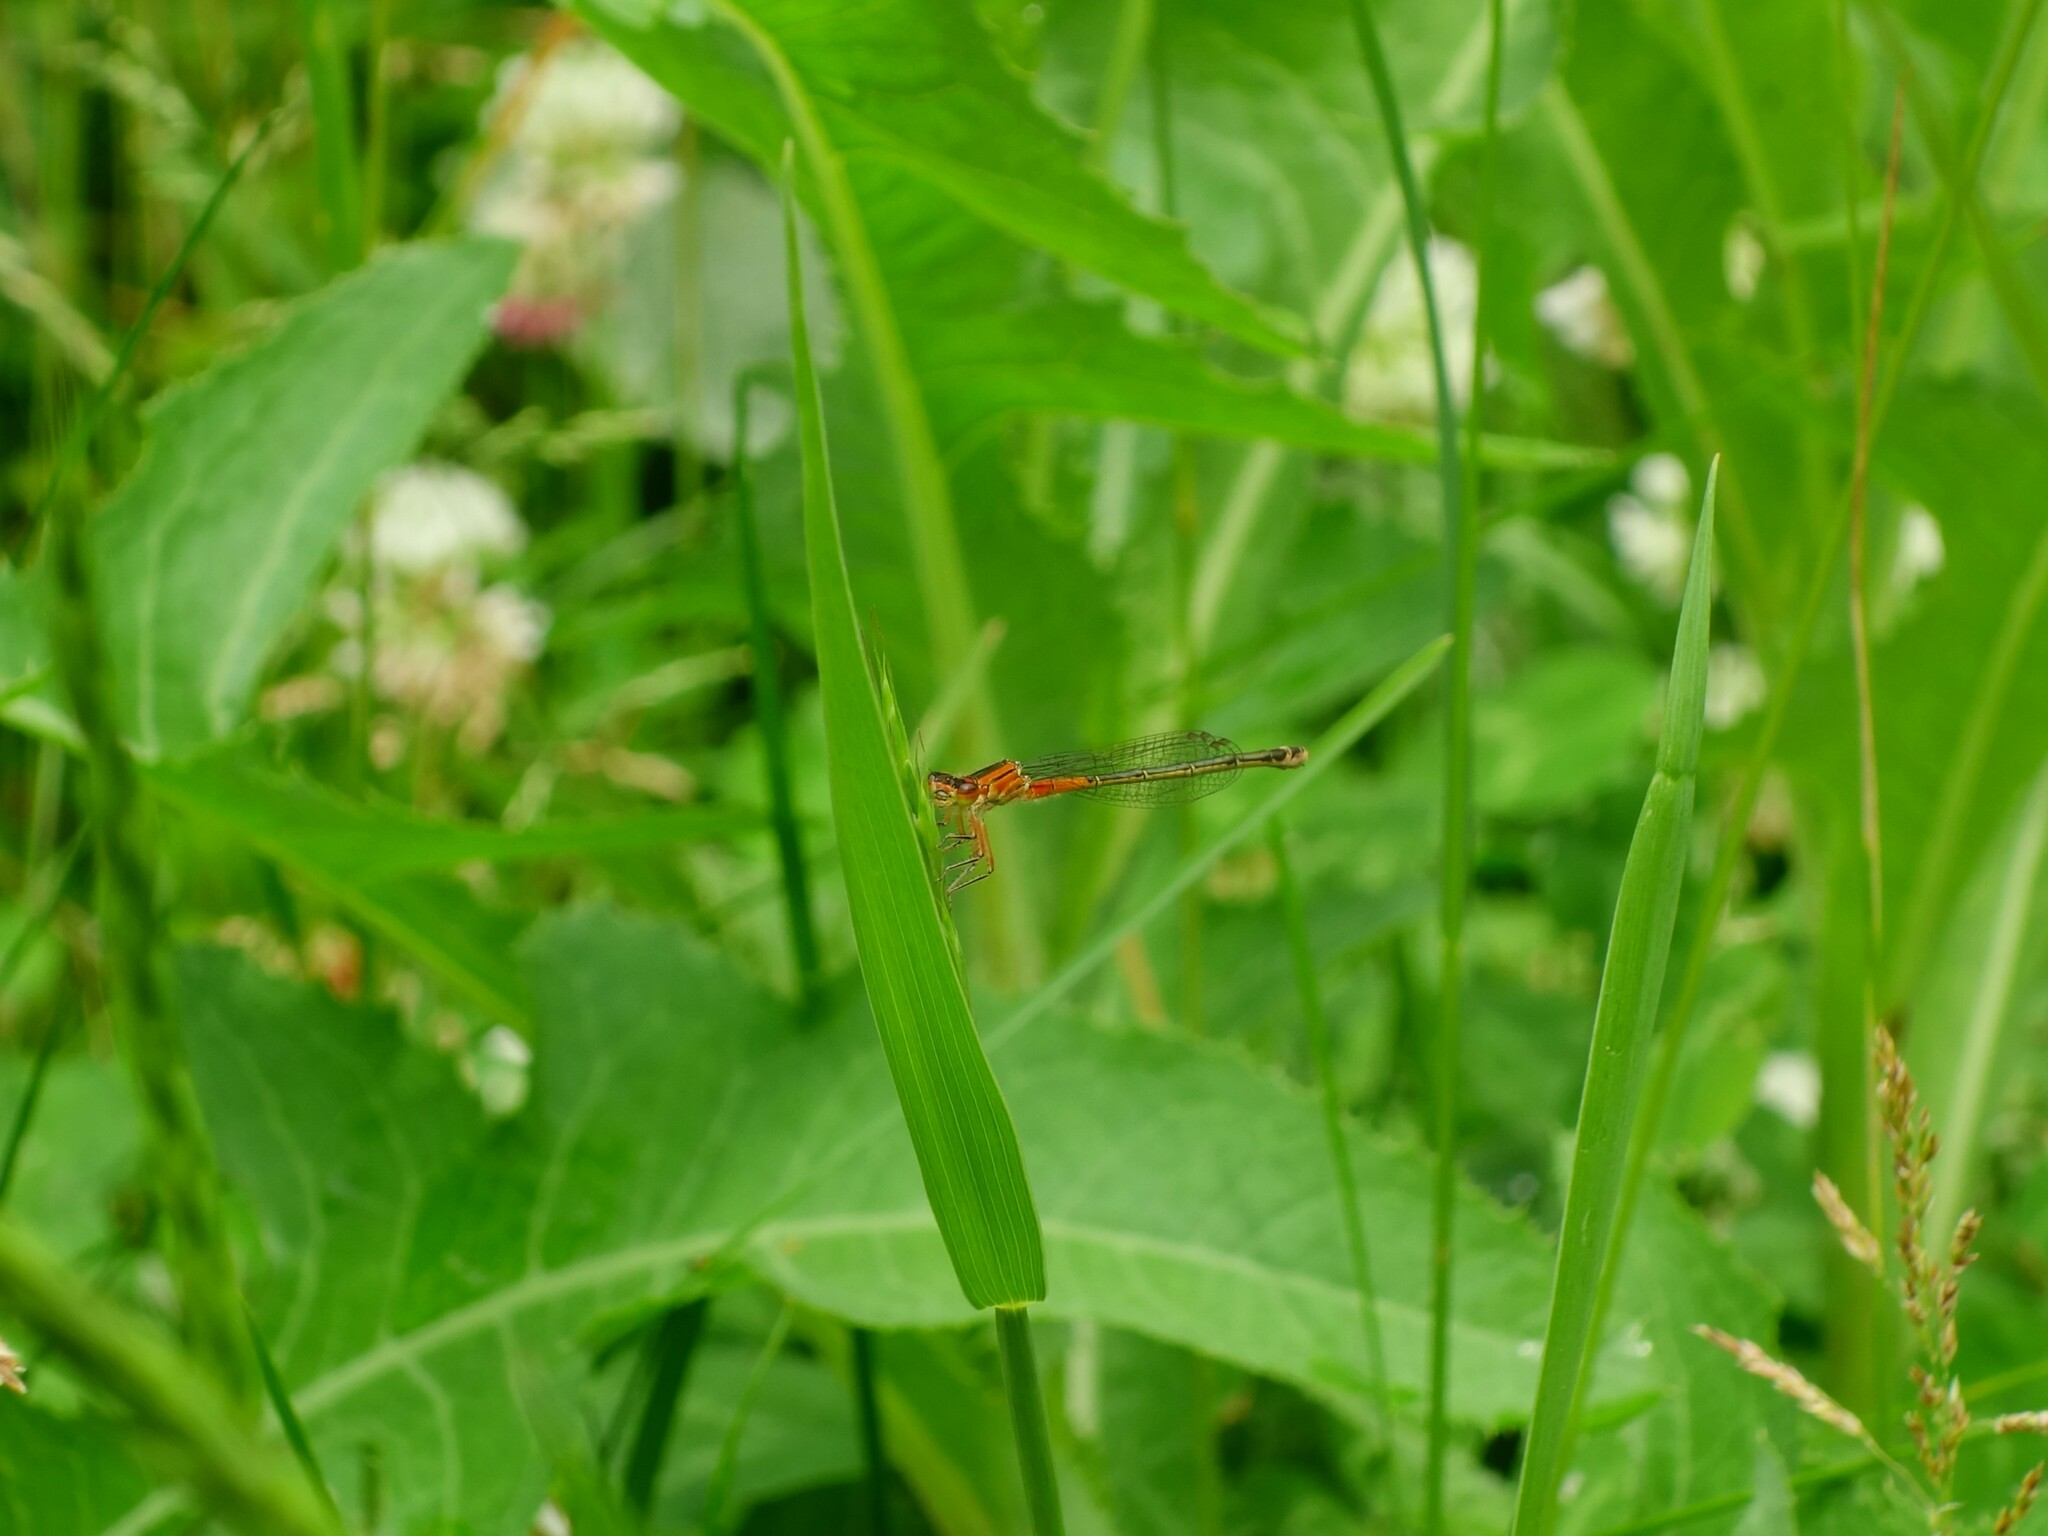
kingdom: Animalia
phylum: Arthropoda
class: Insecta
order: Odonata
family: Coenagrionidae
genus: Ischnura
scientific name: Ischnura verticalis
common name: Eastern forktail
